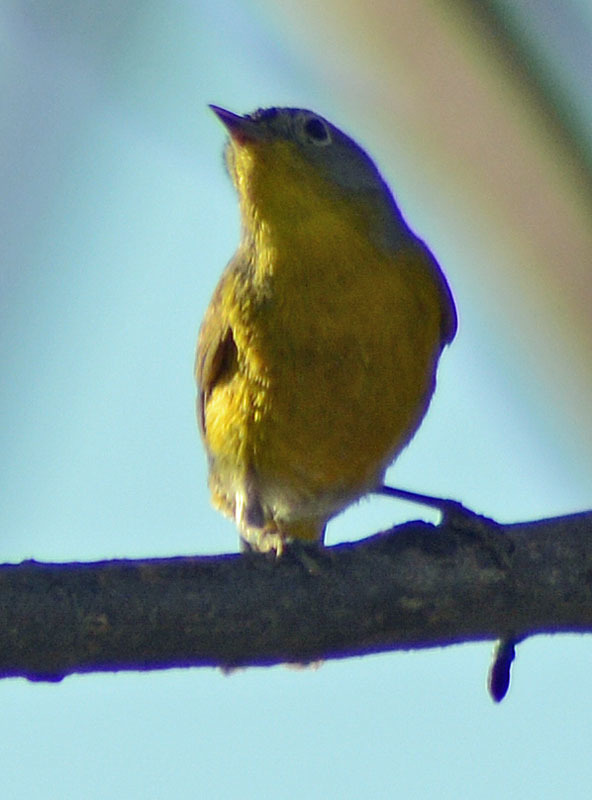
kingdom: Animalia
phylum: Chordata
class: Aves
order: Passeriformes
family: Parulidae
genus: Leiothlypis
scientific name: Leiothlypis ruficapilla
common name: Nashville warbler
